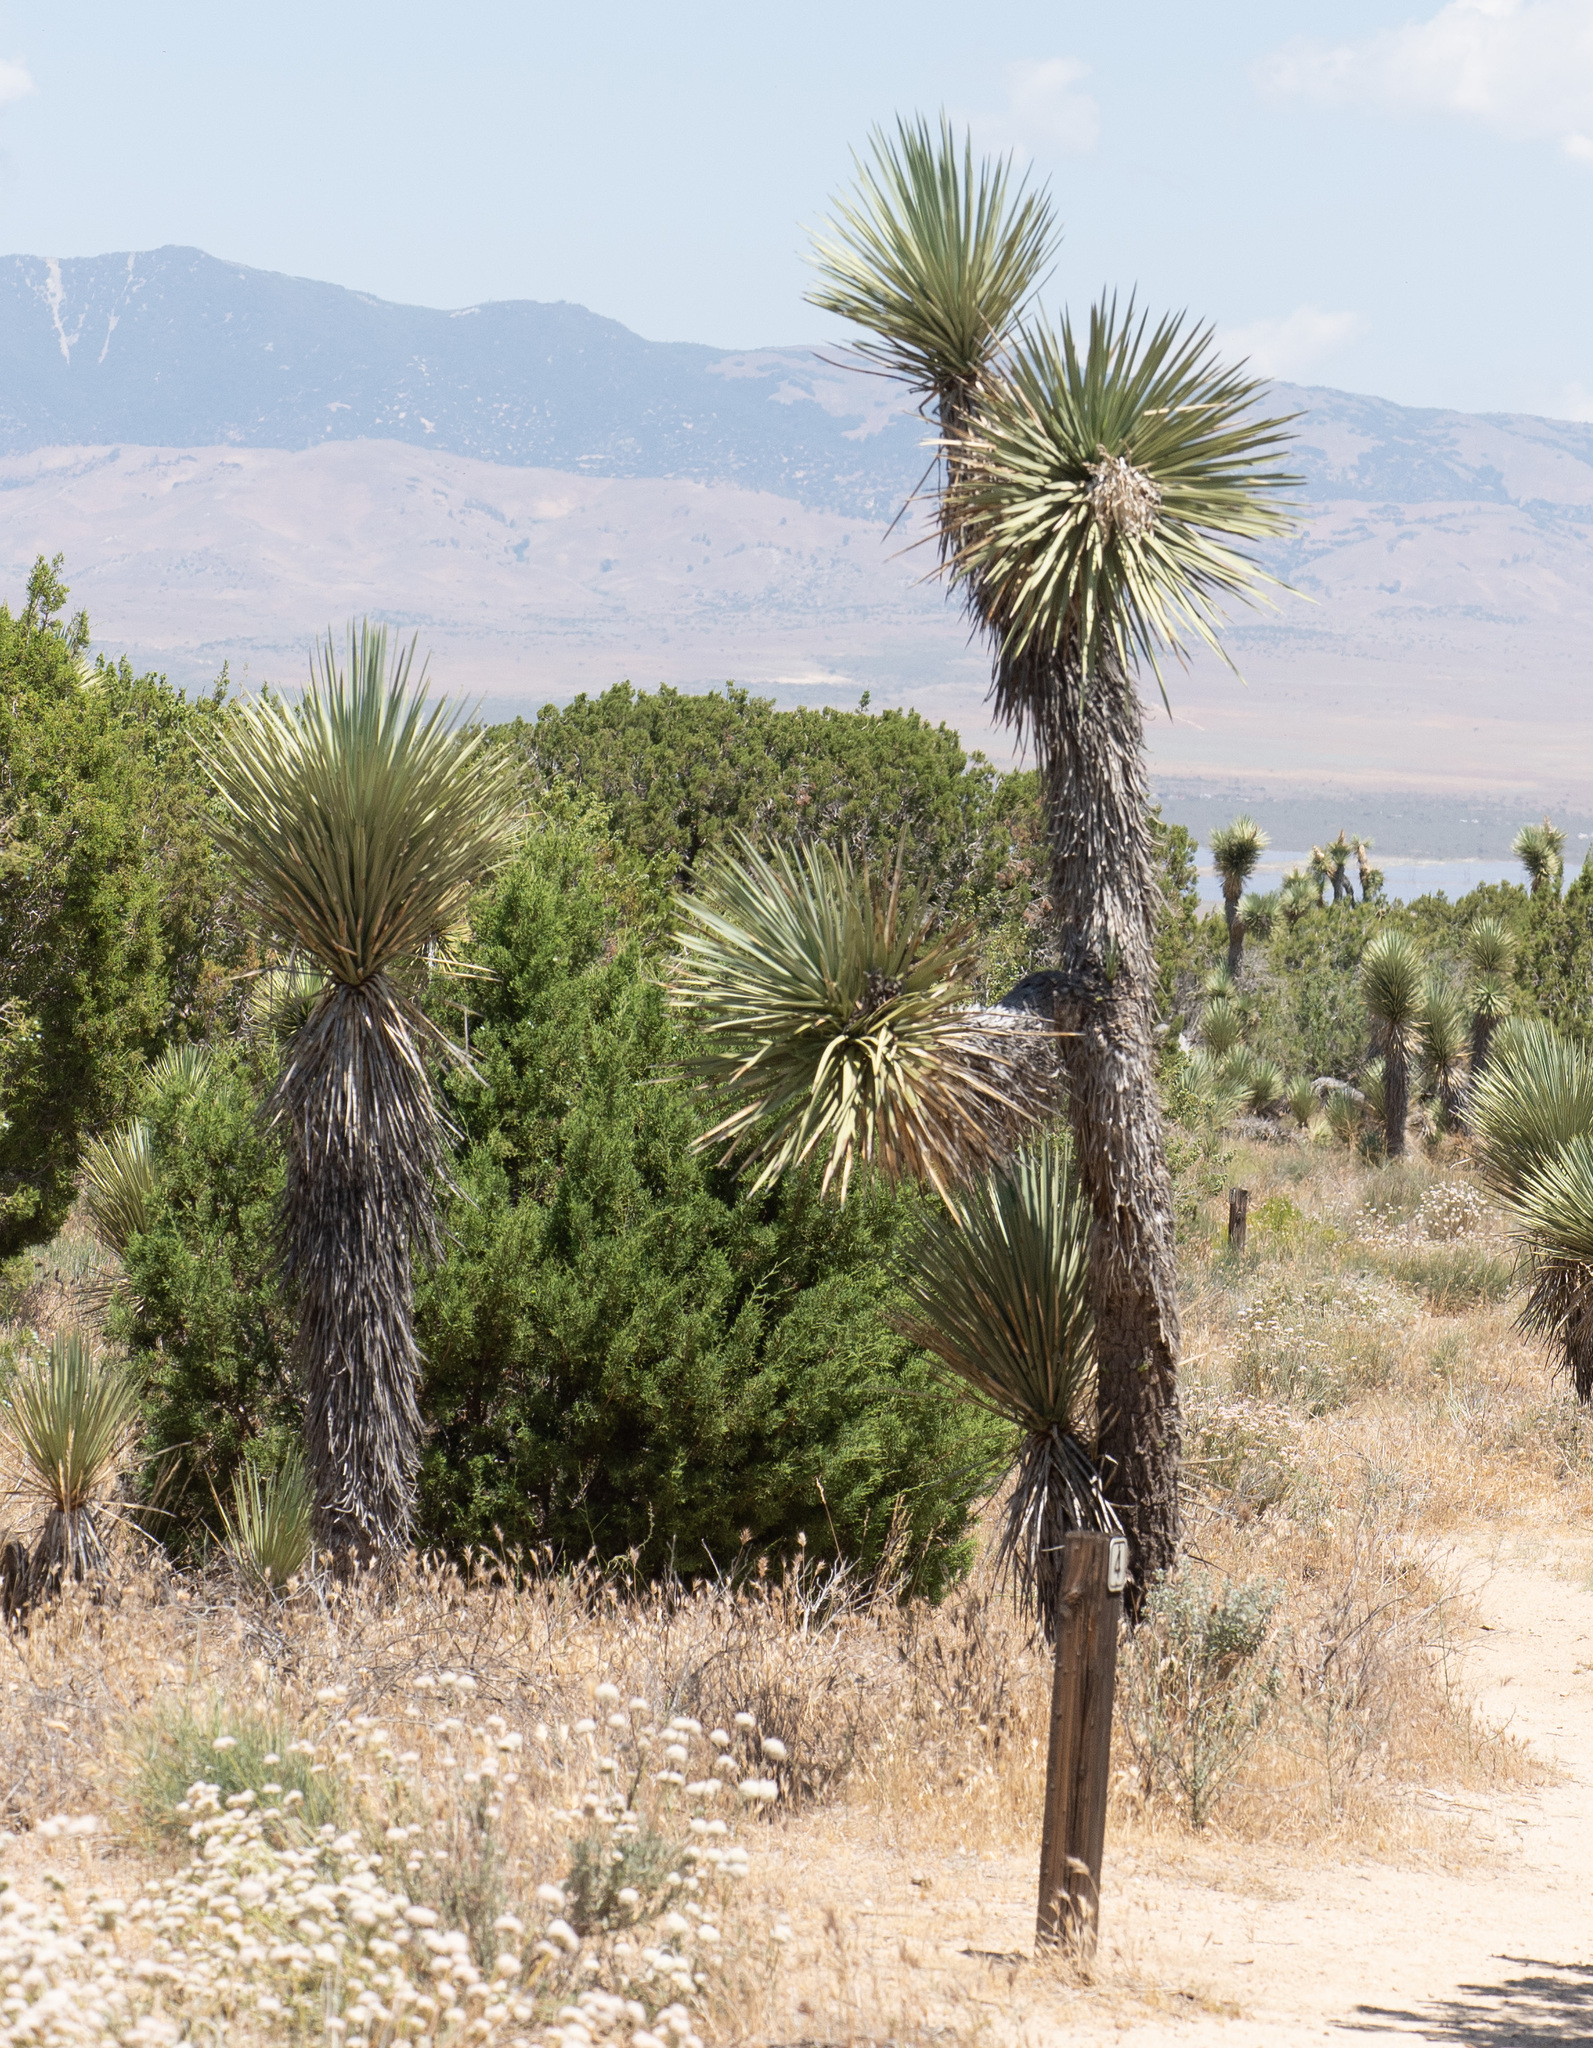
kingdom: Plantae
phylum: Tracheophyta
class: Liliopsida
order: Asparagales
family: Asparagaceae
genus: Yucca
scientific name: Yucca brevifolia
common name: Joshua tree
